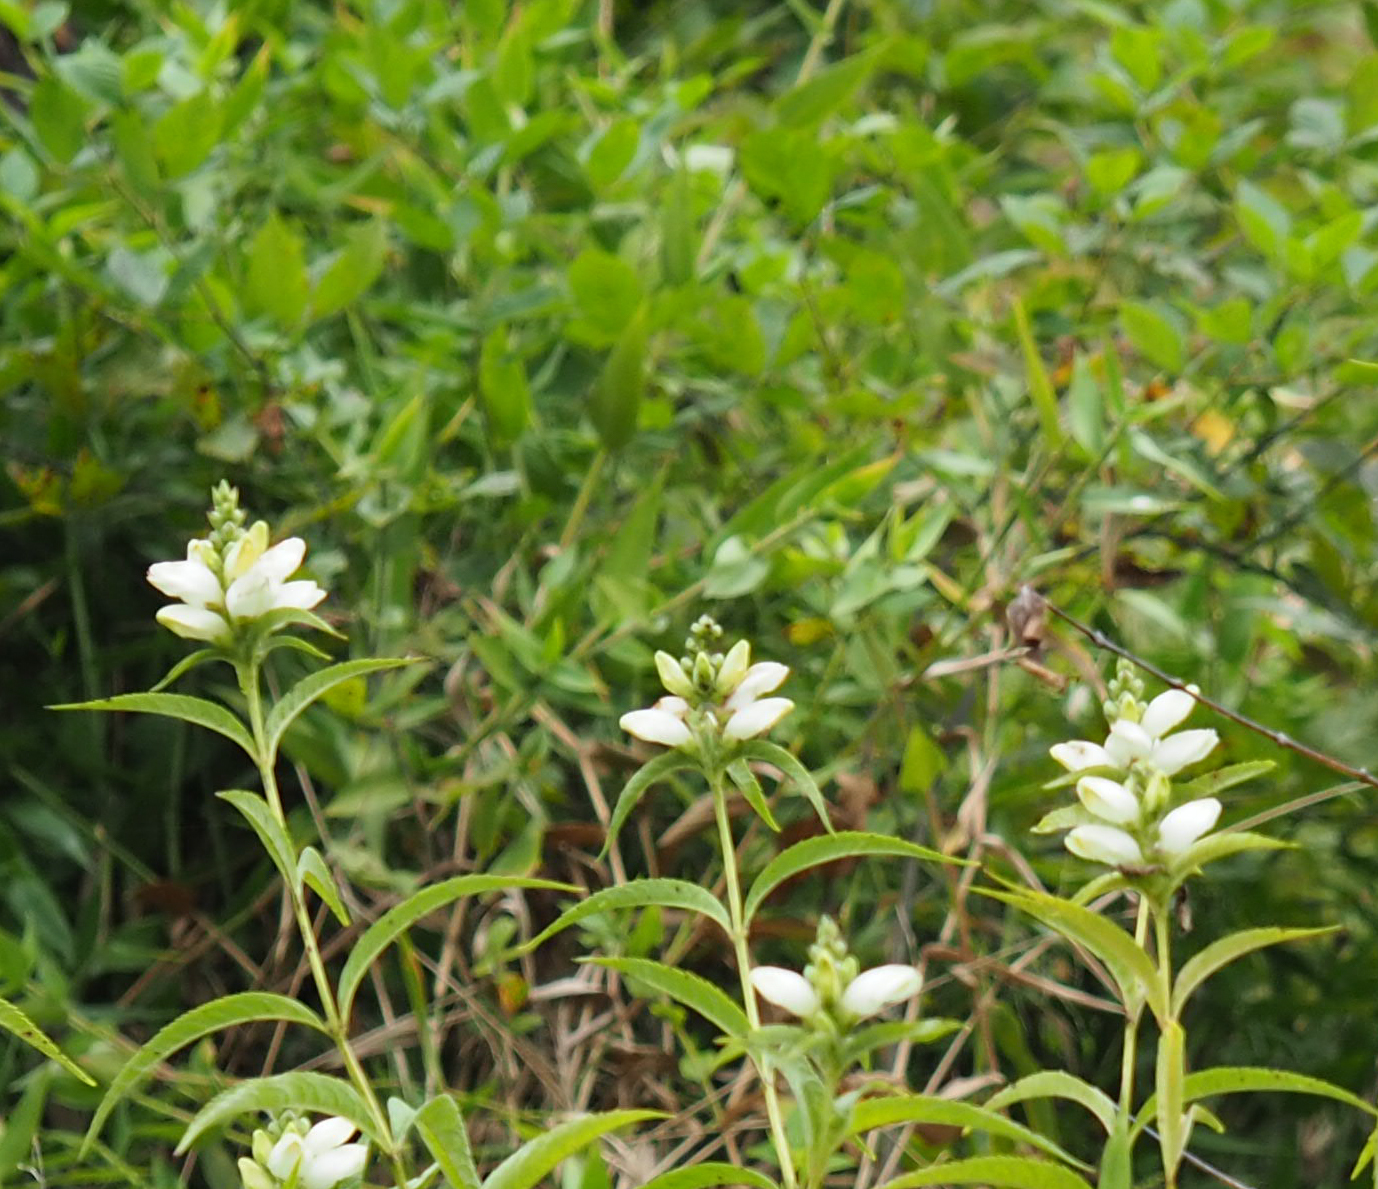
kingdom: Plantae
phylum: Tracheophyta
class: Magnoliopsida
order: Lamiales
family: Plantaginaceae
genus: Chelone
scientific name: Chelone glabra
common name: Snakehead
